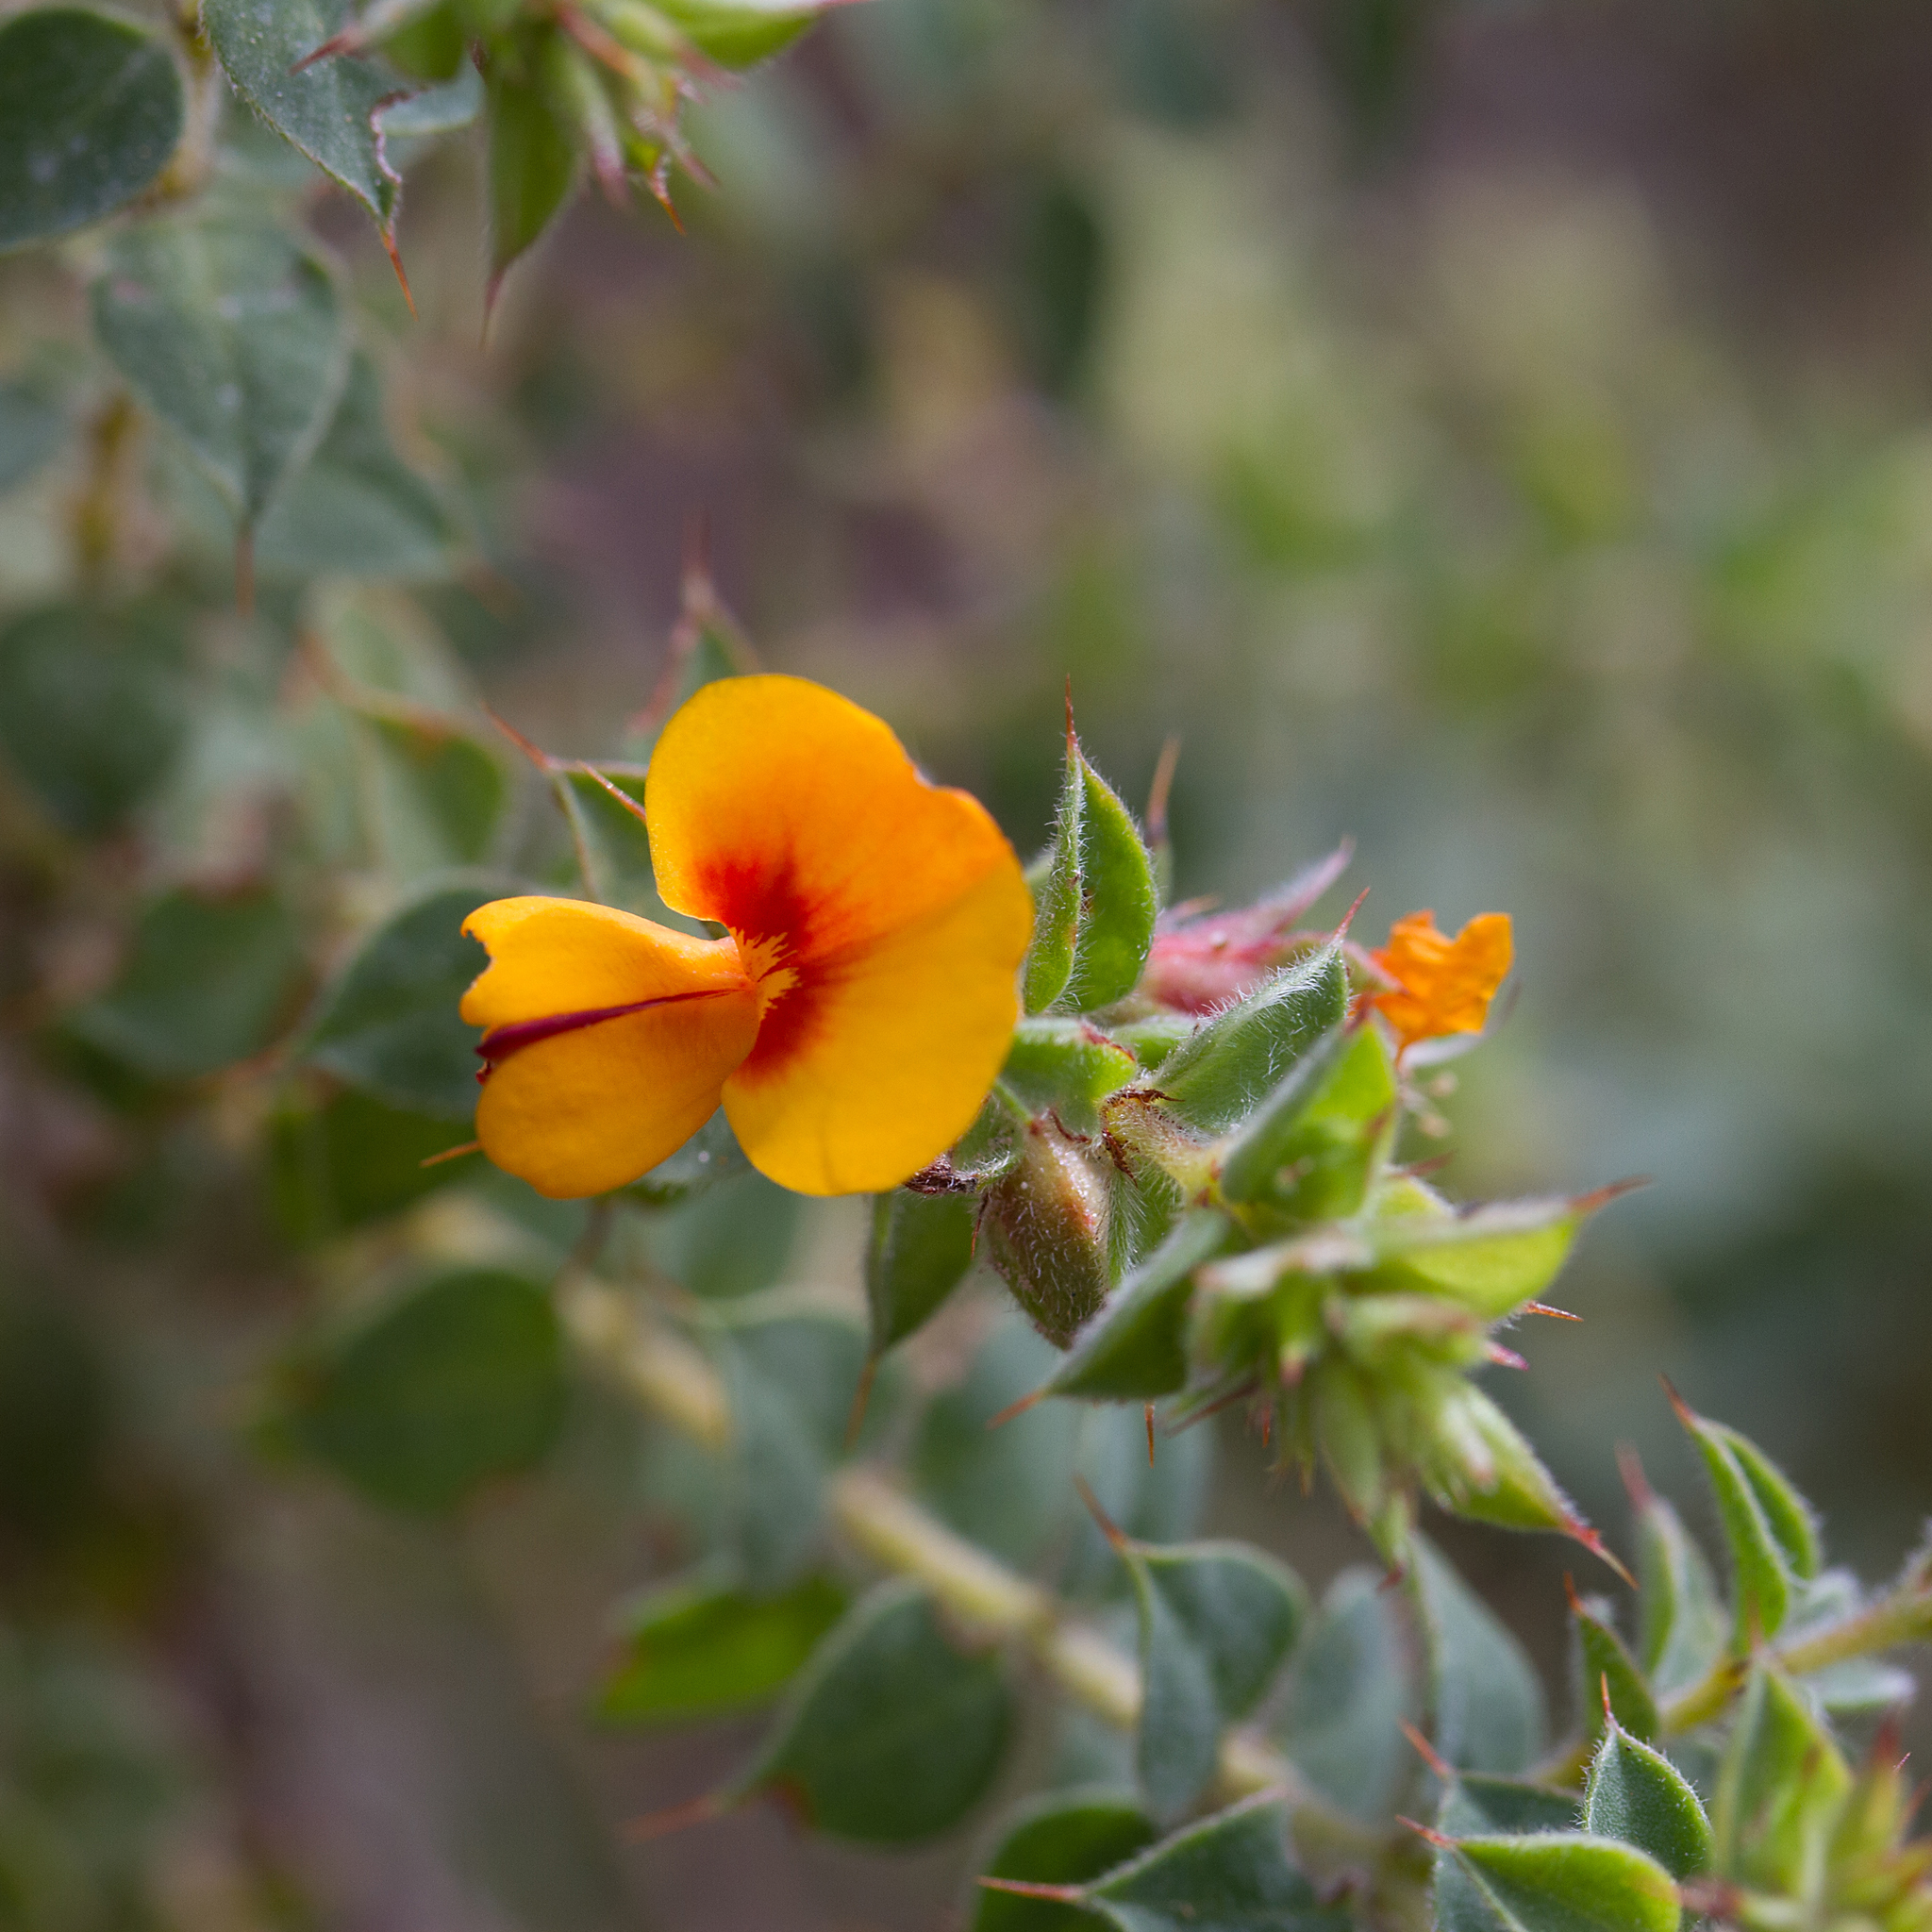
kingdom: Plantae
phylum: Tracheophyta
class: Magnoliopsida
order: Fabales
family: Fabaceae
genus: Pultenaea
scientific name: Pultenaea spinosa
